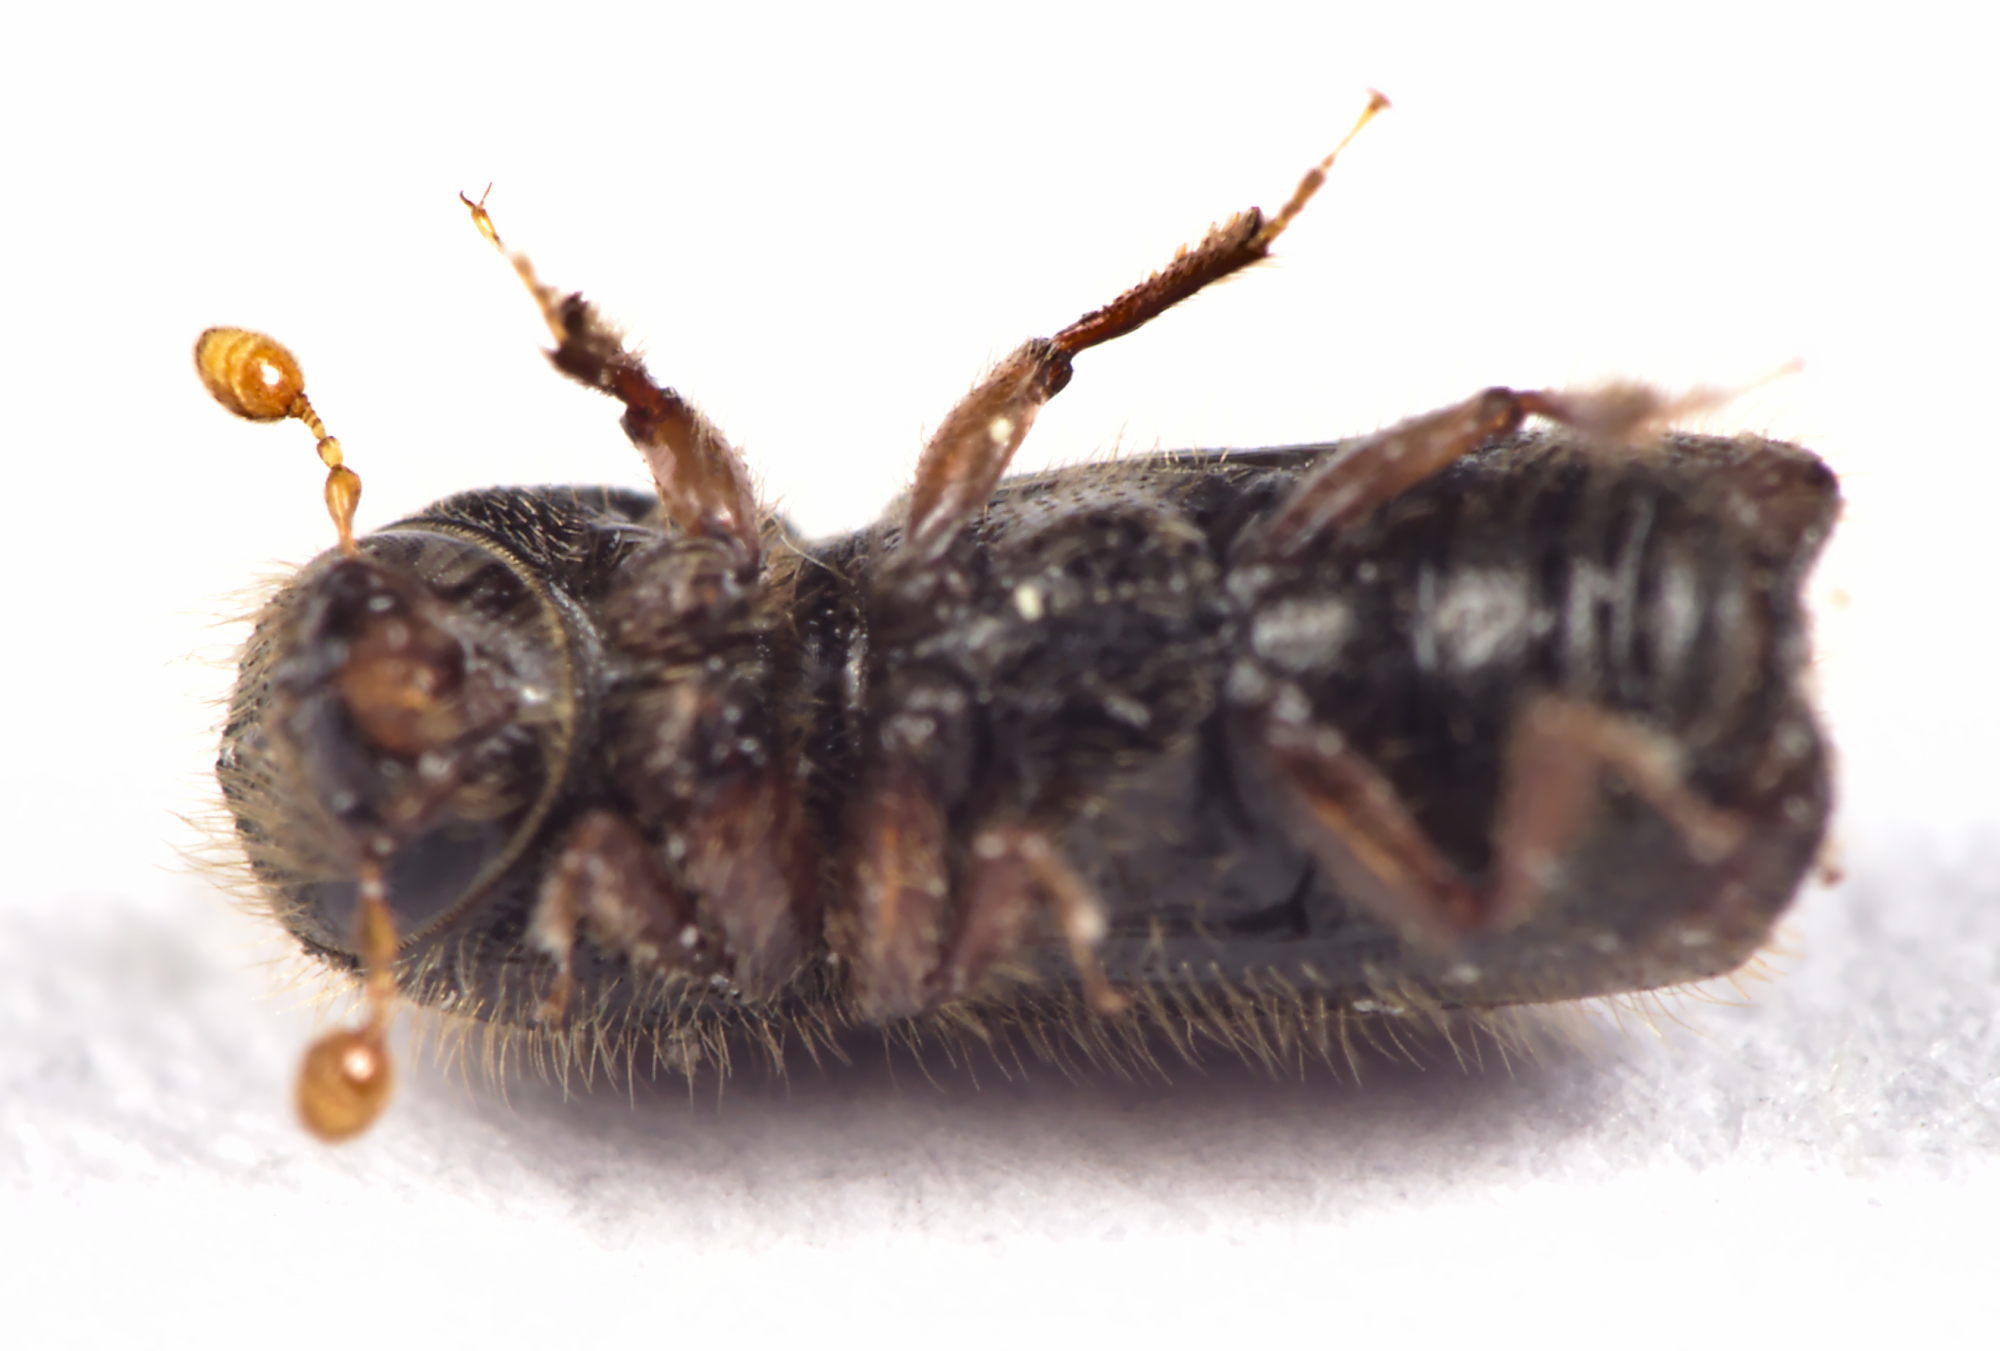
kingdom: Animalia
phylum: Arthropoda
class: Insecta
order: Coleoptera
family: Curculionidae
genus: Xylocleptes
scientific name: Xylocleptes bispinus
